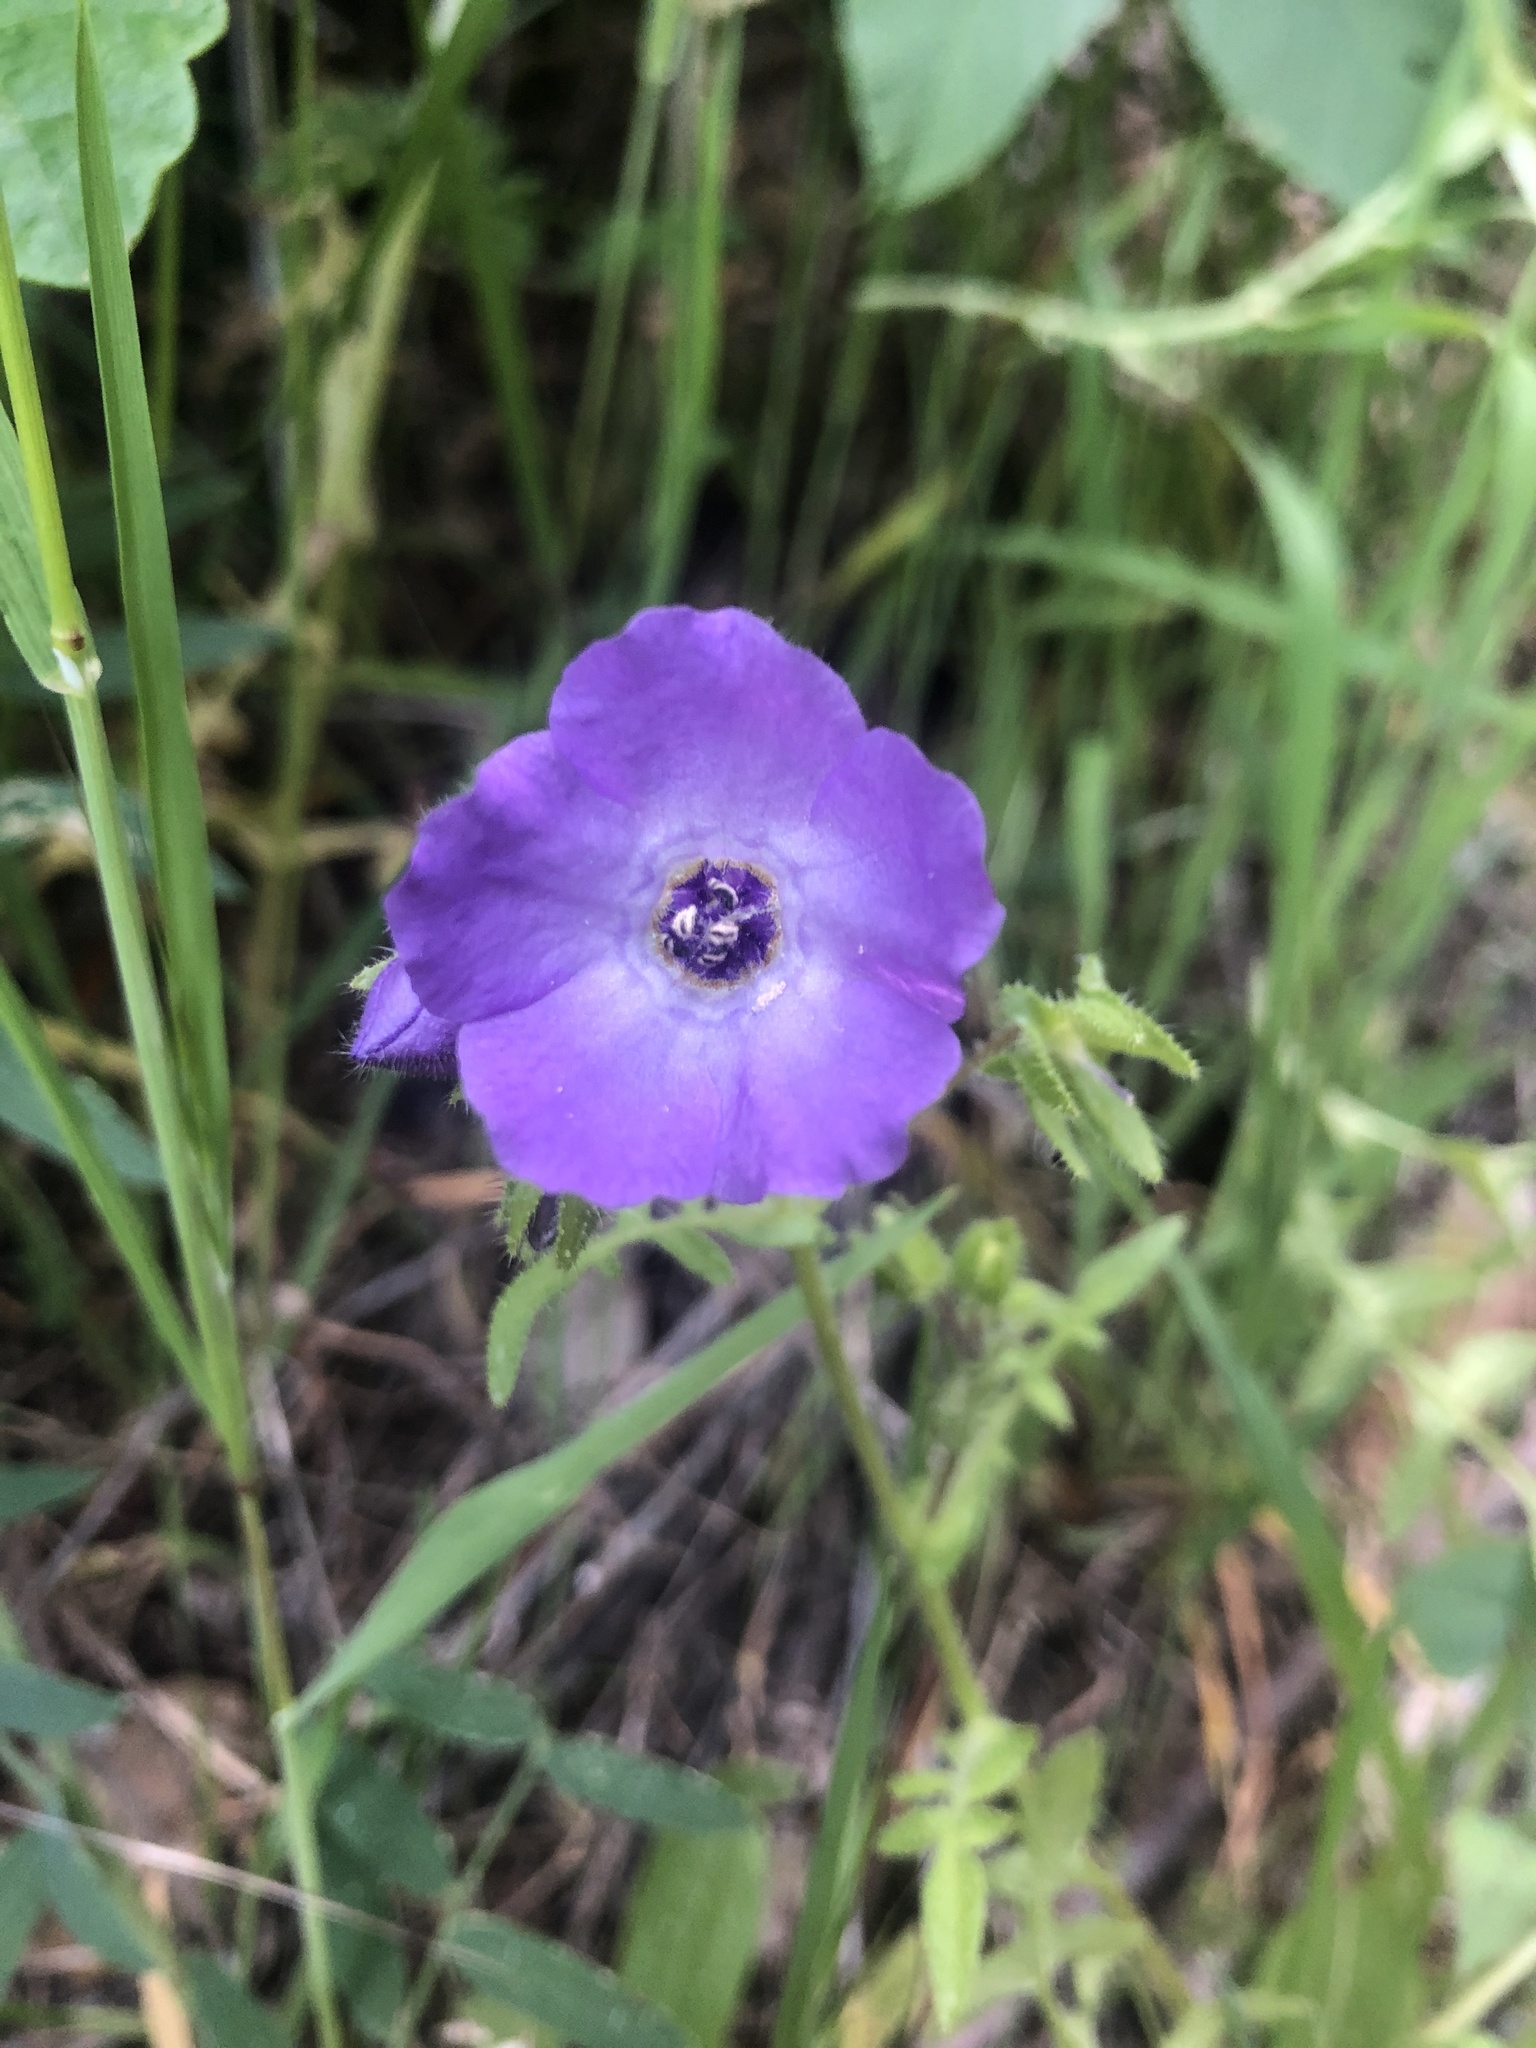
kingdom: Plantae
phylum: Tracheophyta
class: Magnoliopsida
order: Boraginales
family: Hydrophyllaceae
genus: Pholistoma
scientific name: Pholistoma auritum
